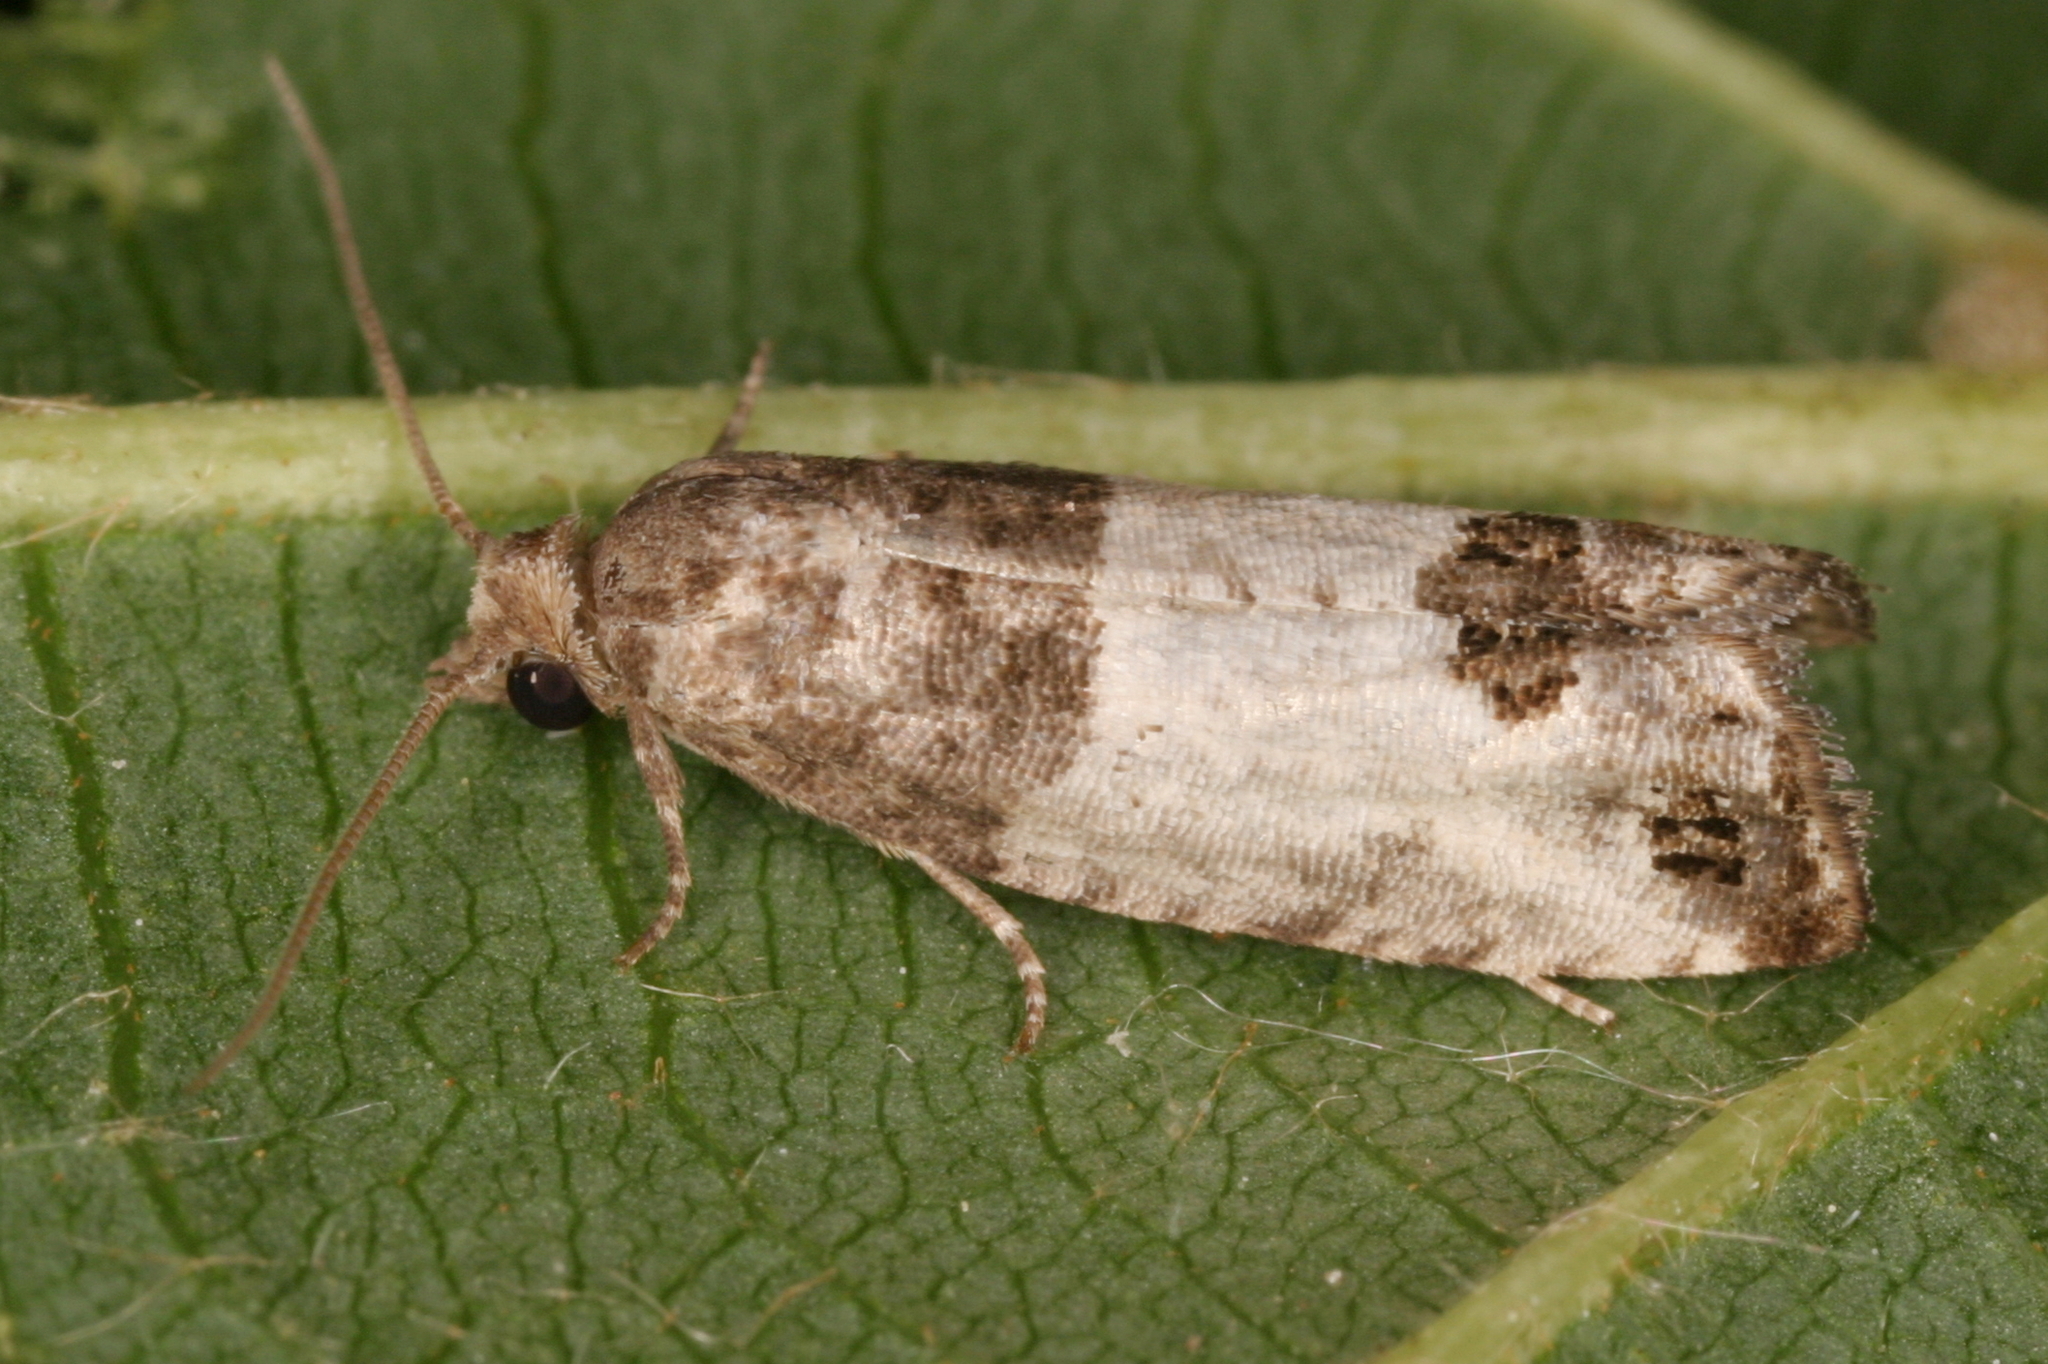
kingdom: Animalia
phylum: Arthropoda
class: Insecta
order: Lepidoptera
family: Tortricidae
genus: Spilonota
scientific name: Spilonota ocellana
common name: Bud moth
